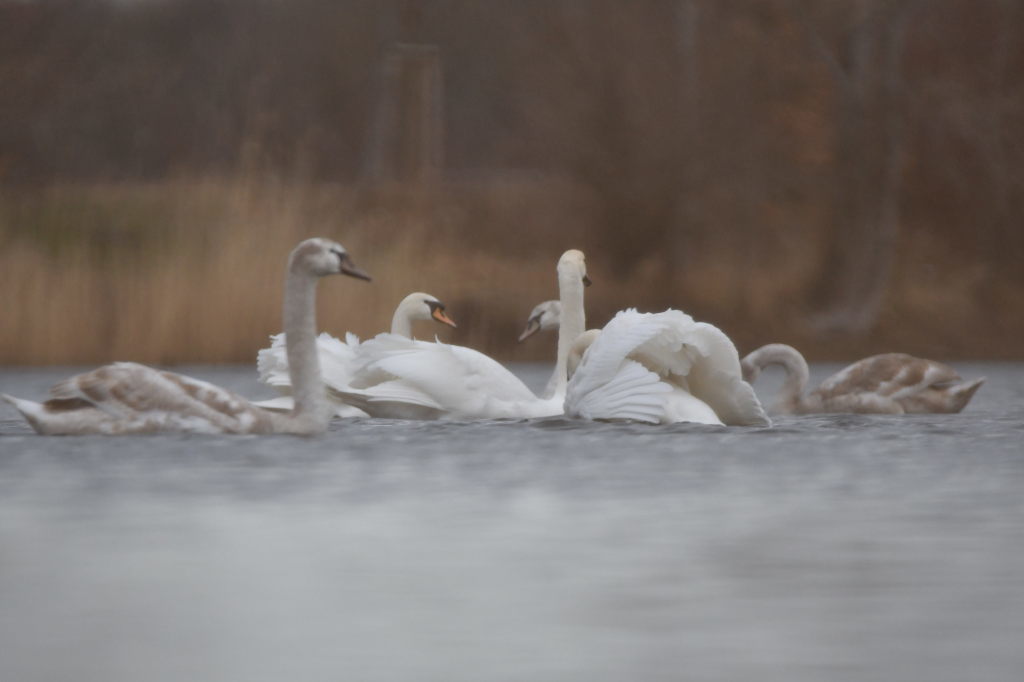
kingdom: Animalia
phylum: Chordata
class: Aves
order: Anseriformes
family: Anatidae
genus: Cygnus
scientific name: Cygnus olor
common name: Mute swan
